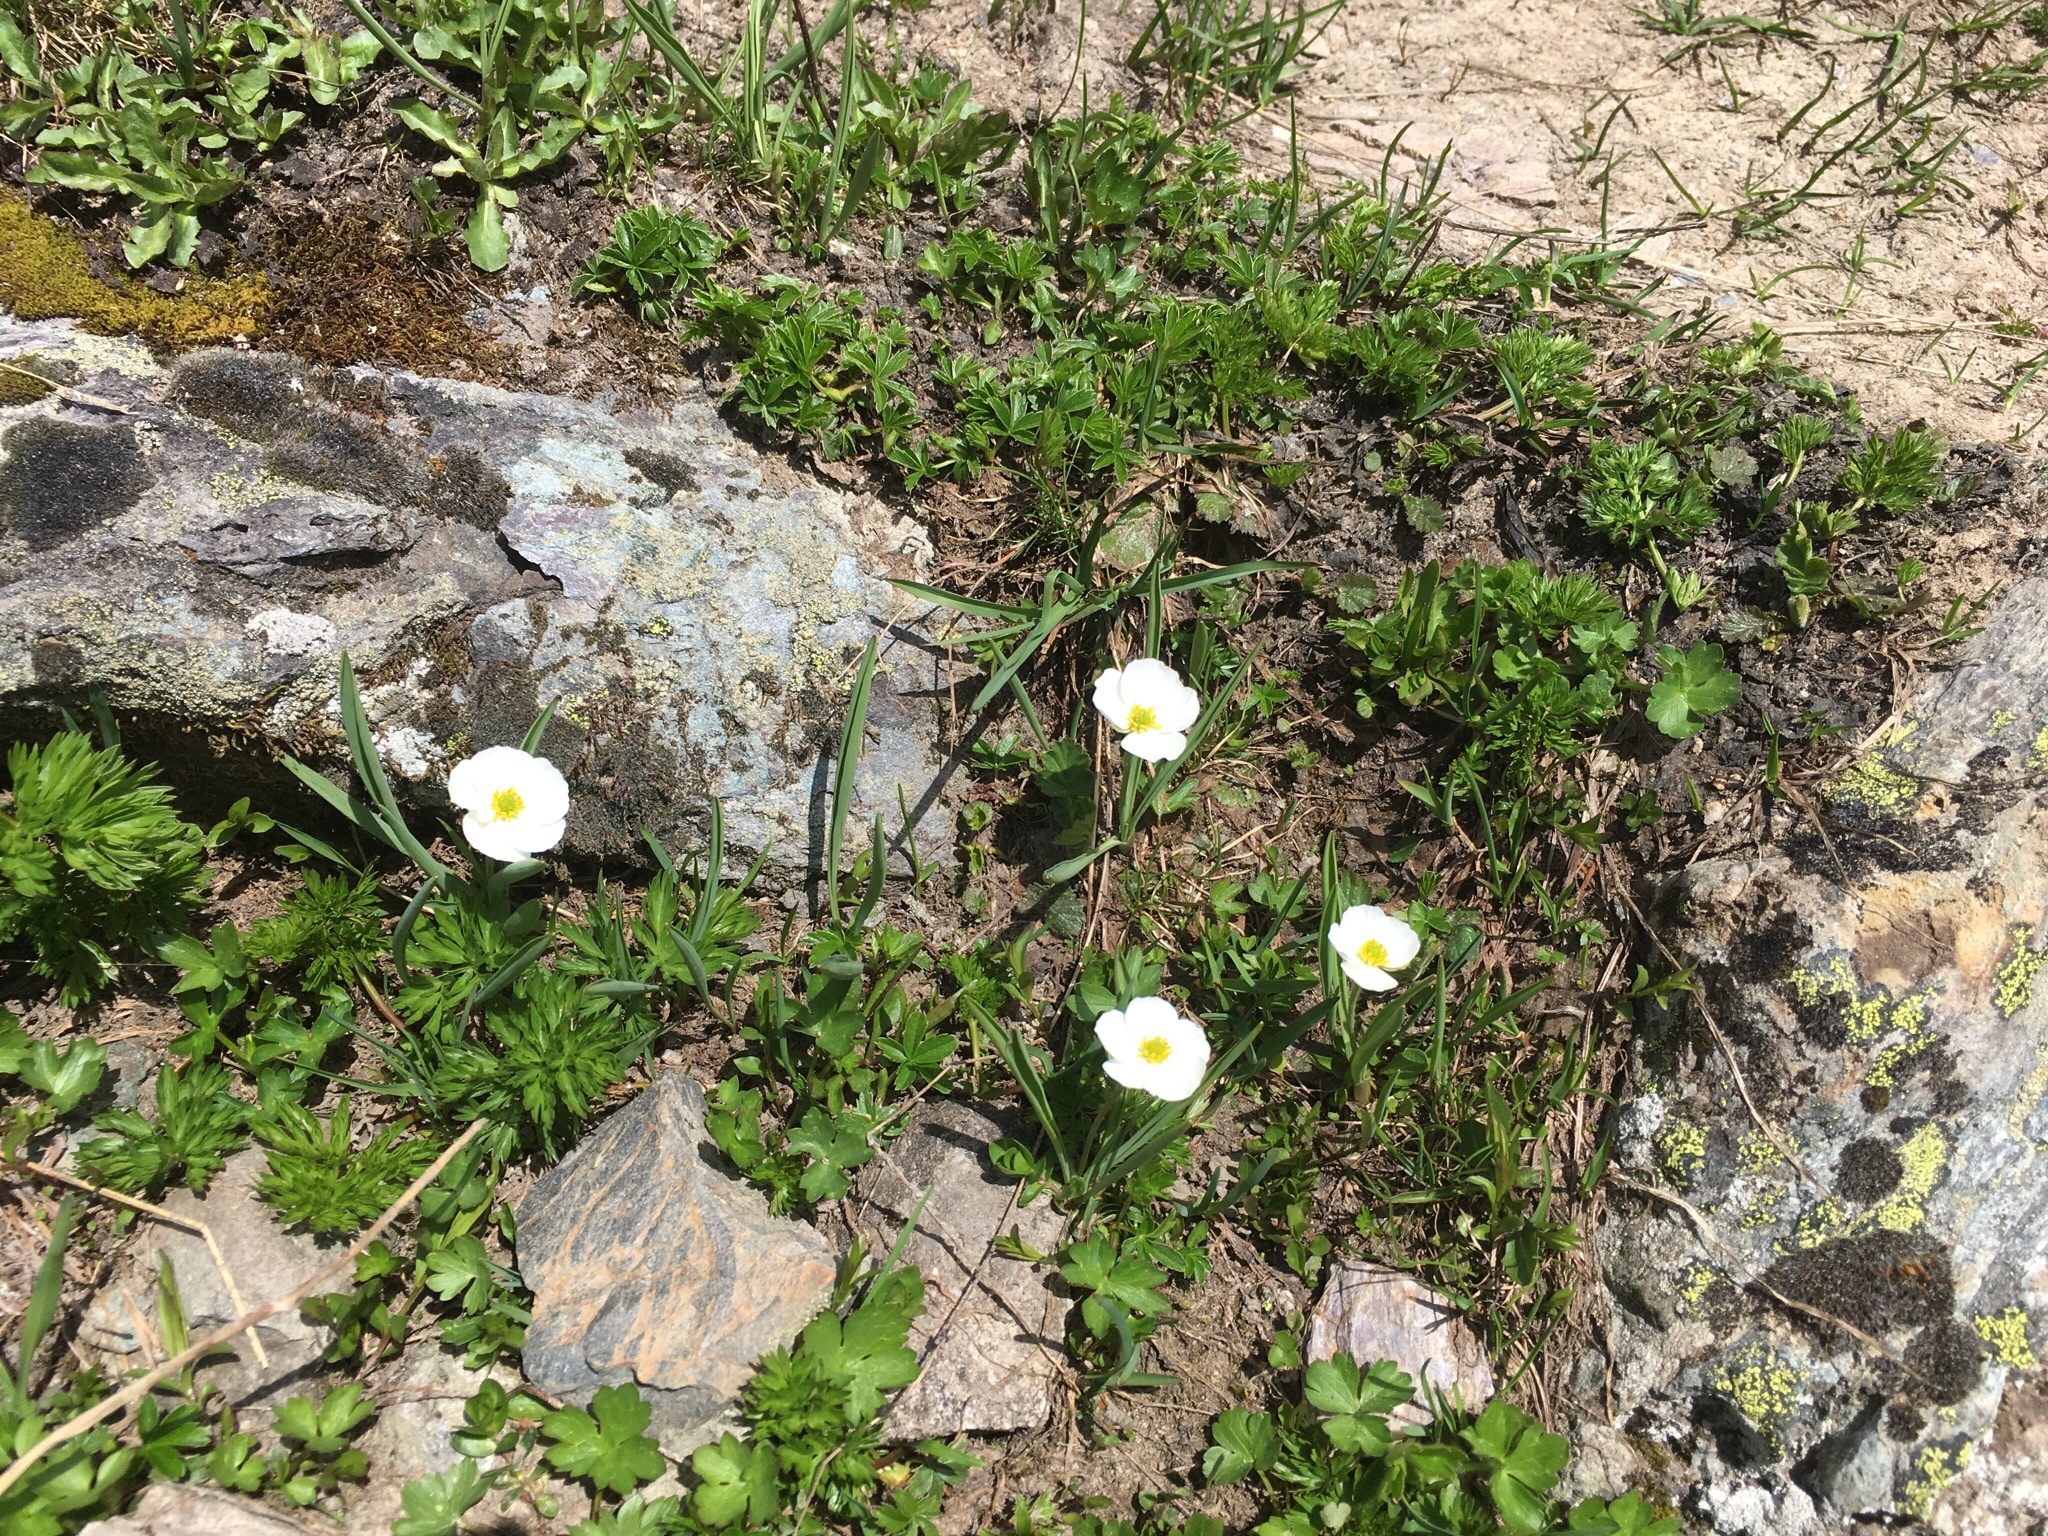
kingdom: Plantae
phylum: Tracheophyta
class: Magnoliopsida
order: Ranunculales
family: Ranunculaceae
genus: Ranunculus
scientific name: Ranunculus kuepferi
